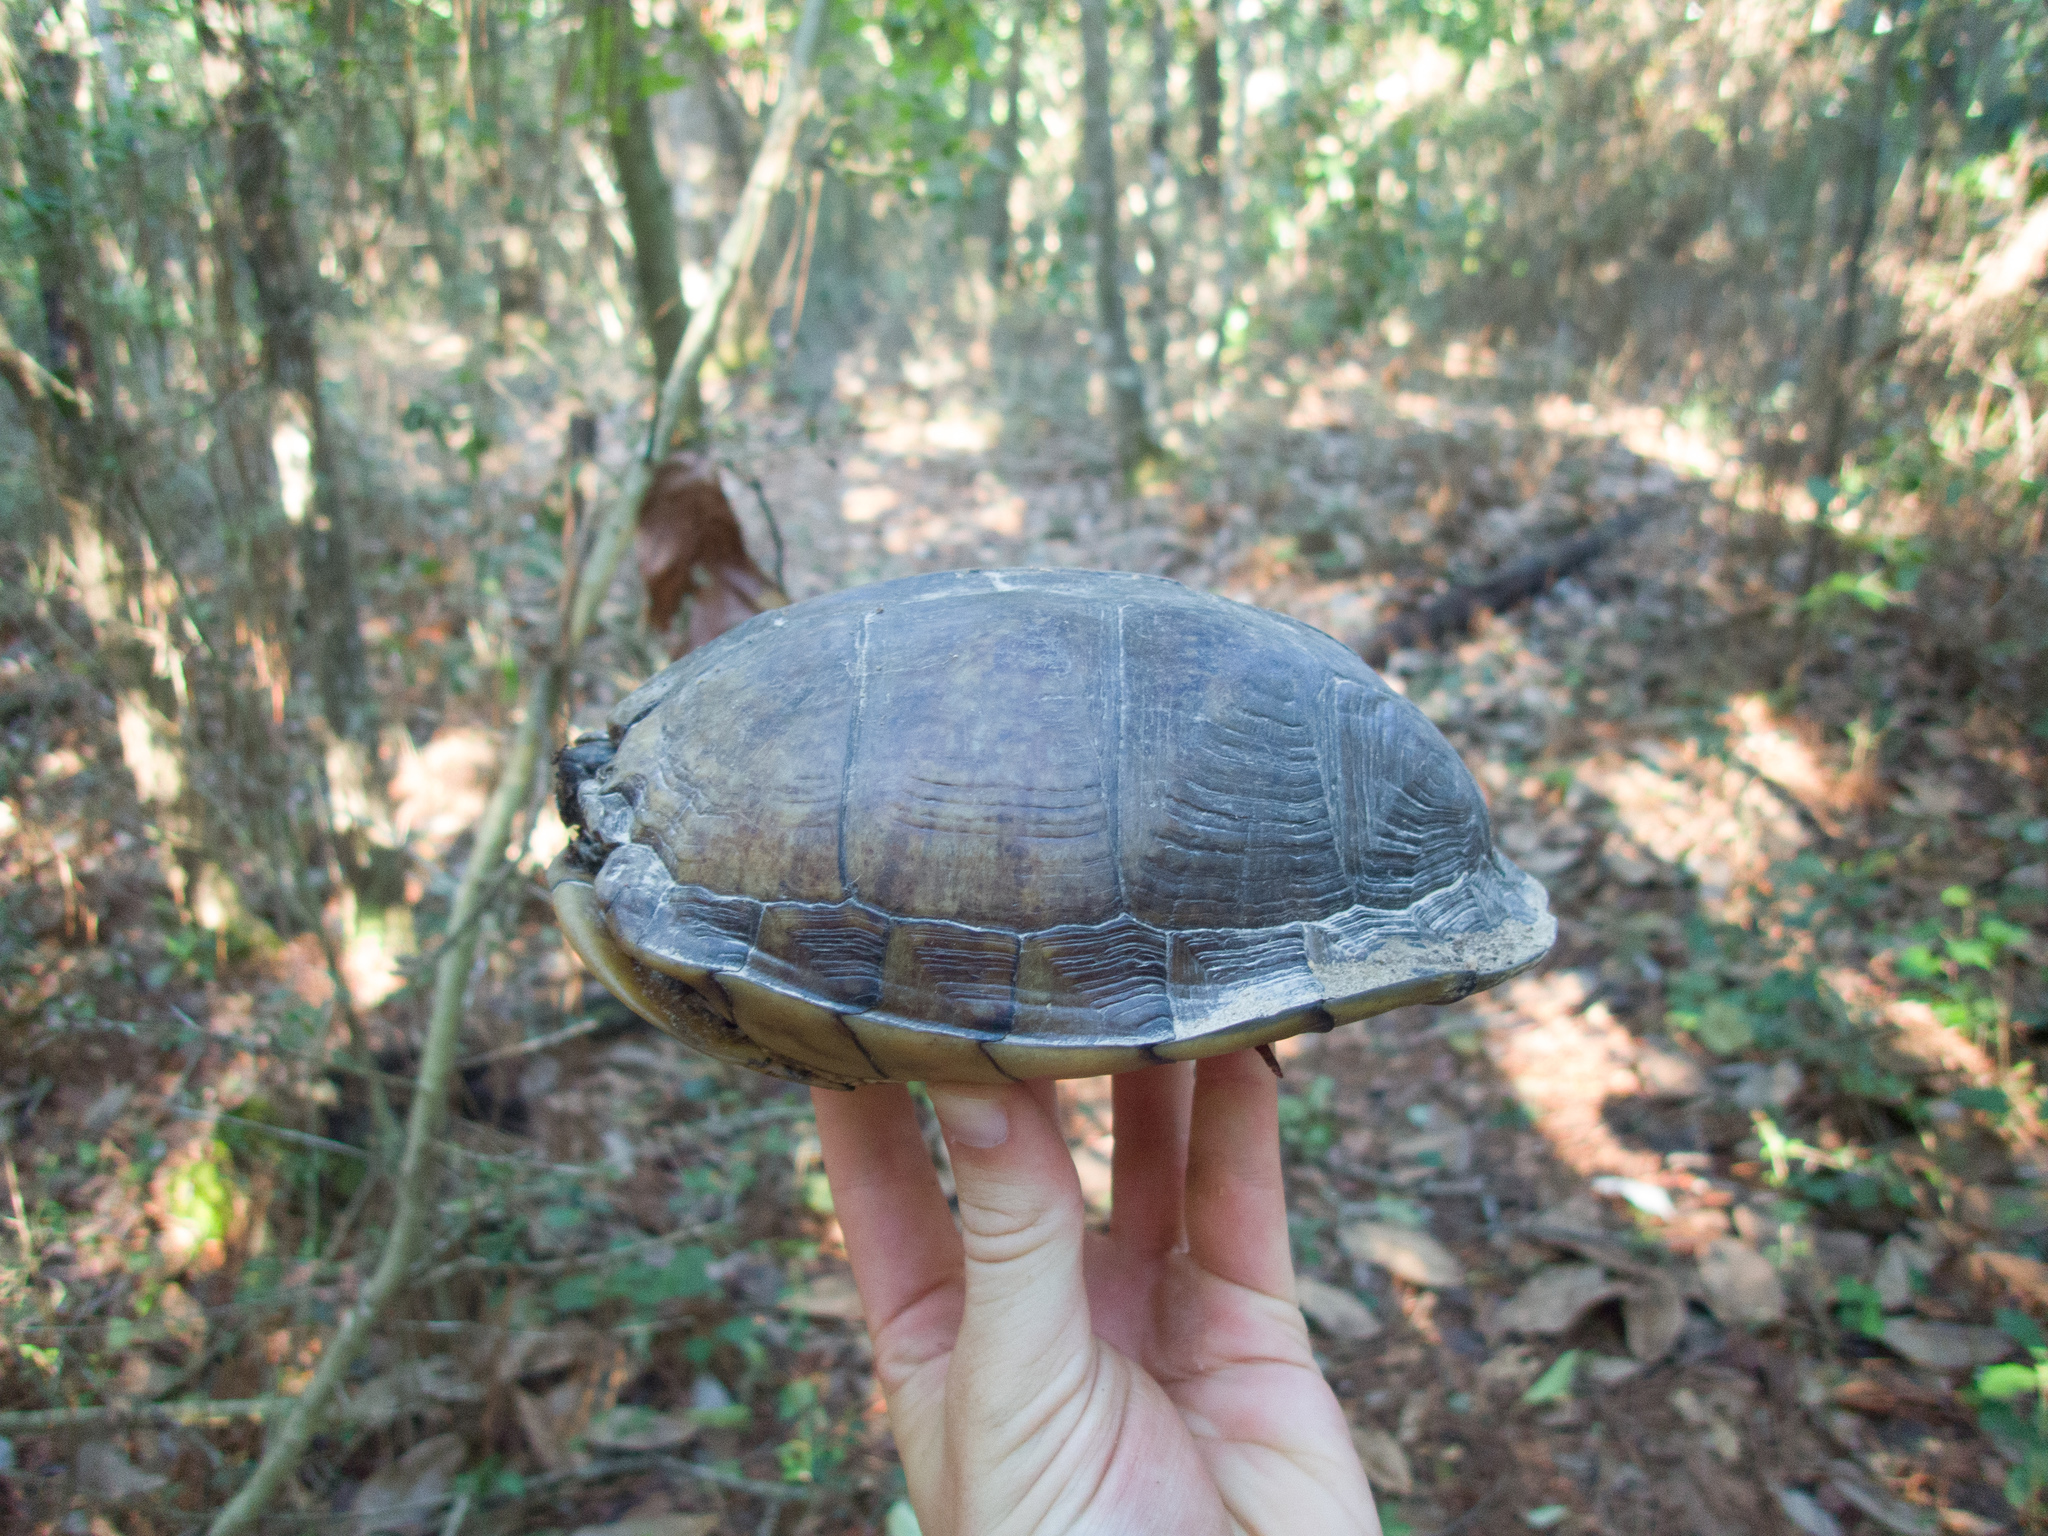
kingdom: Animalia
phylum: Chordata
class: Testudines
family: Emydidae
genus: Terrapene
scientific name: Terrapene carolina
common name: Common box turtle
